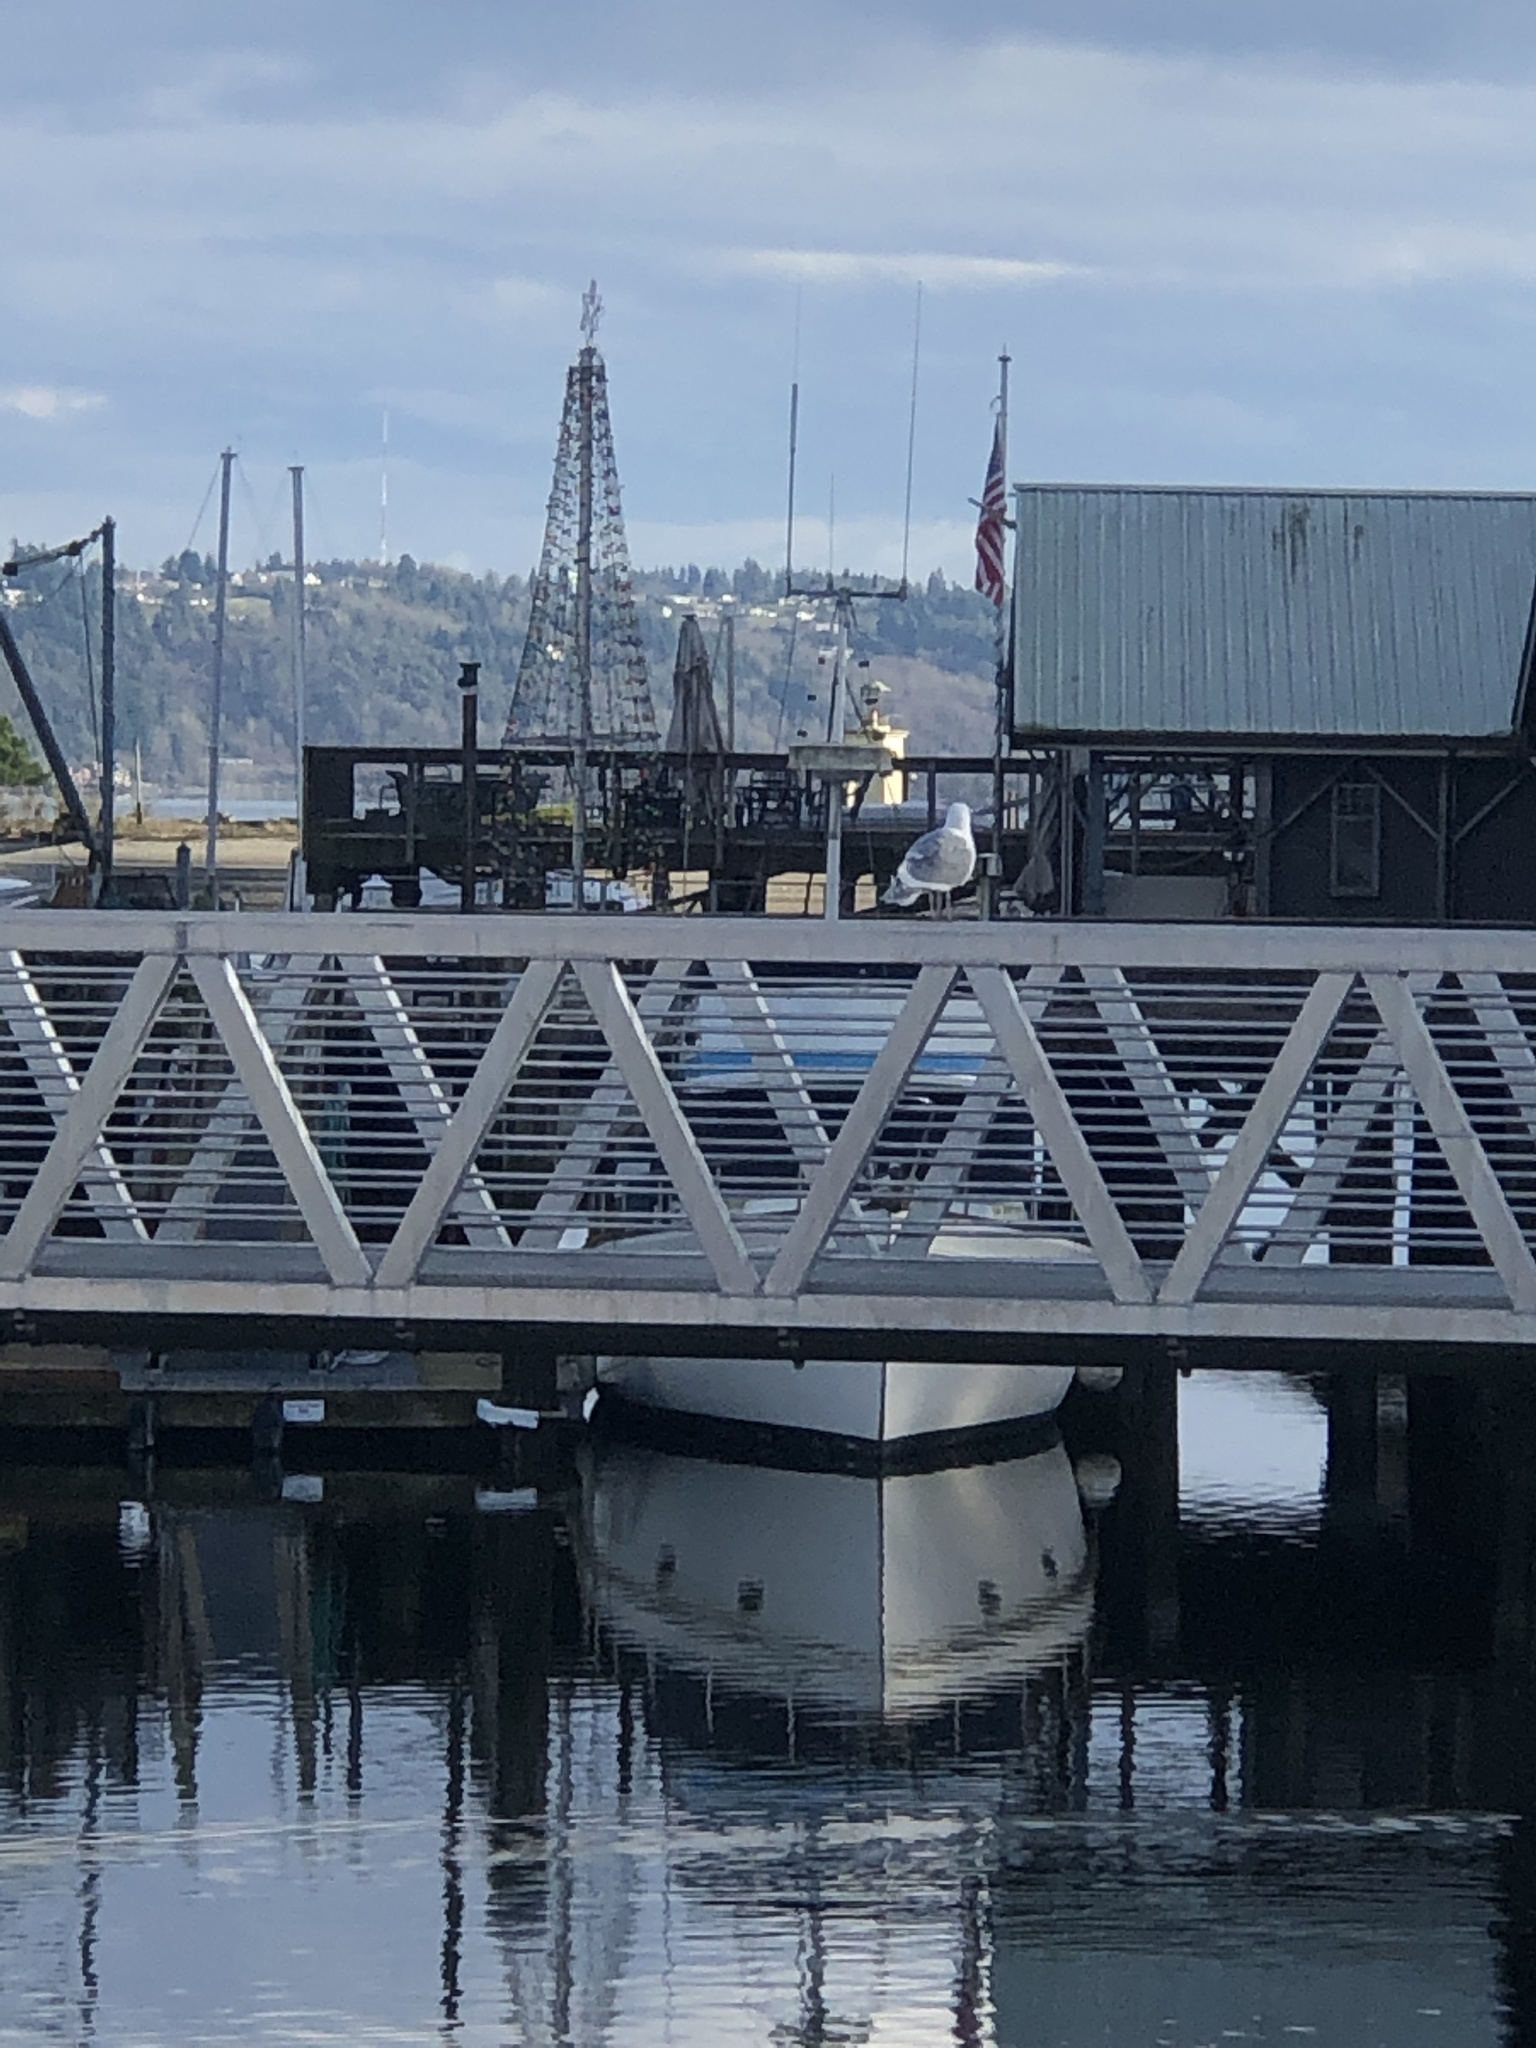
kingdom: Animalia
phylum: Chordata
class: Aves
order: Charadriiformes
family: Laridae
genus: Larus
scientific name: Larus
